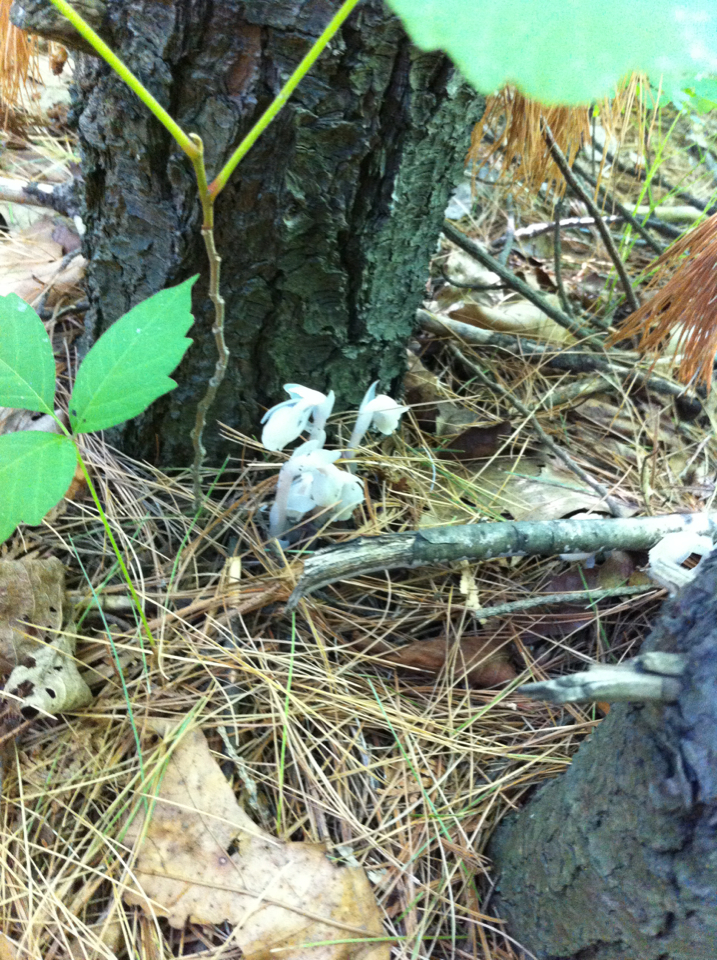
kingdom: Plantae
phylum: Tracheophyta
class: Magnoliopsida
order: Ericales
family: Ericaceae
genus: Monotropa
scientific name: Monotropa uniflora
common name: Convulsion root
